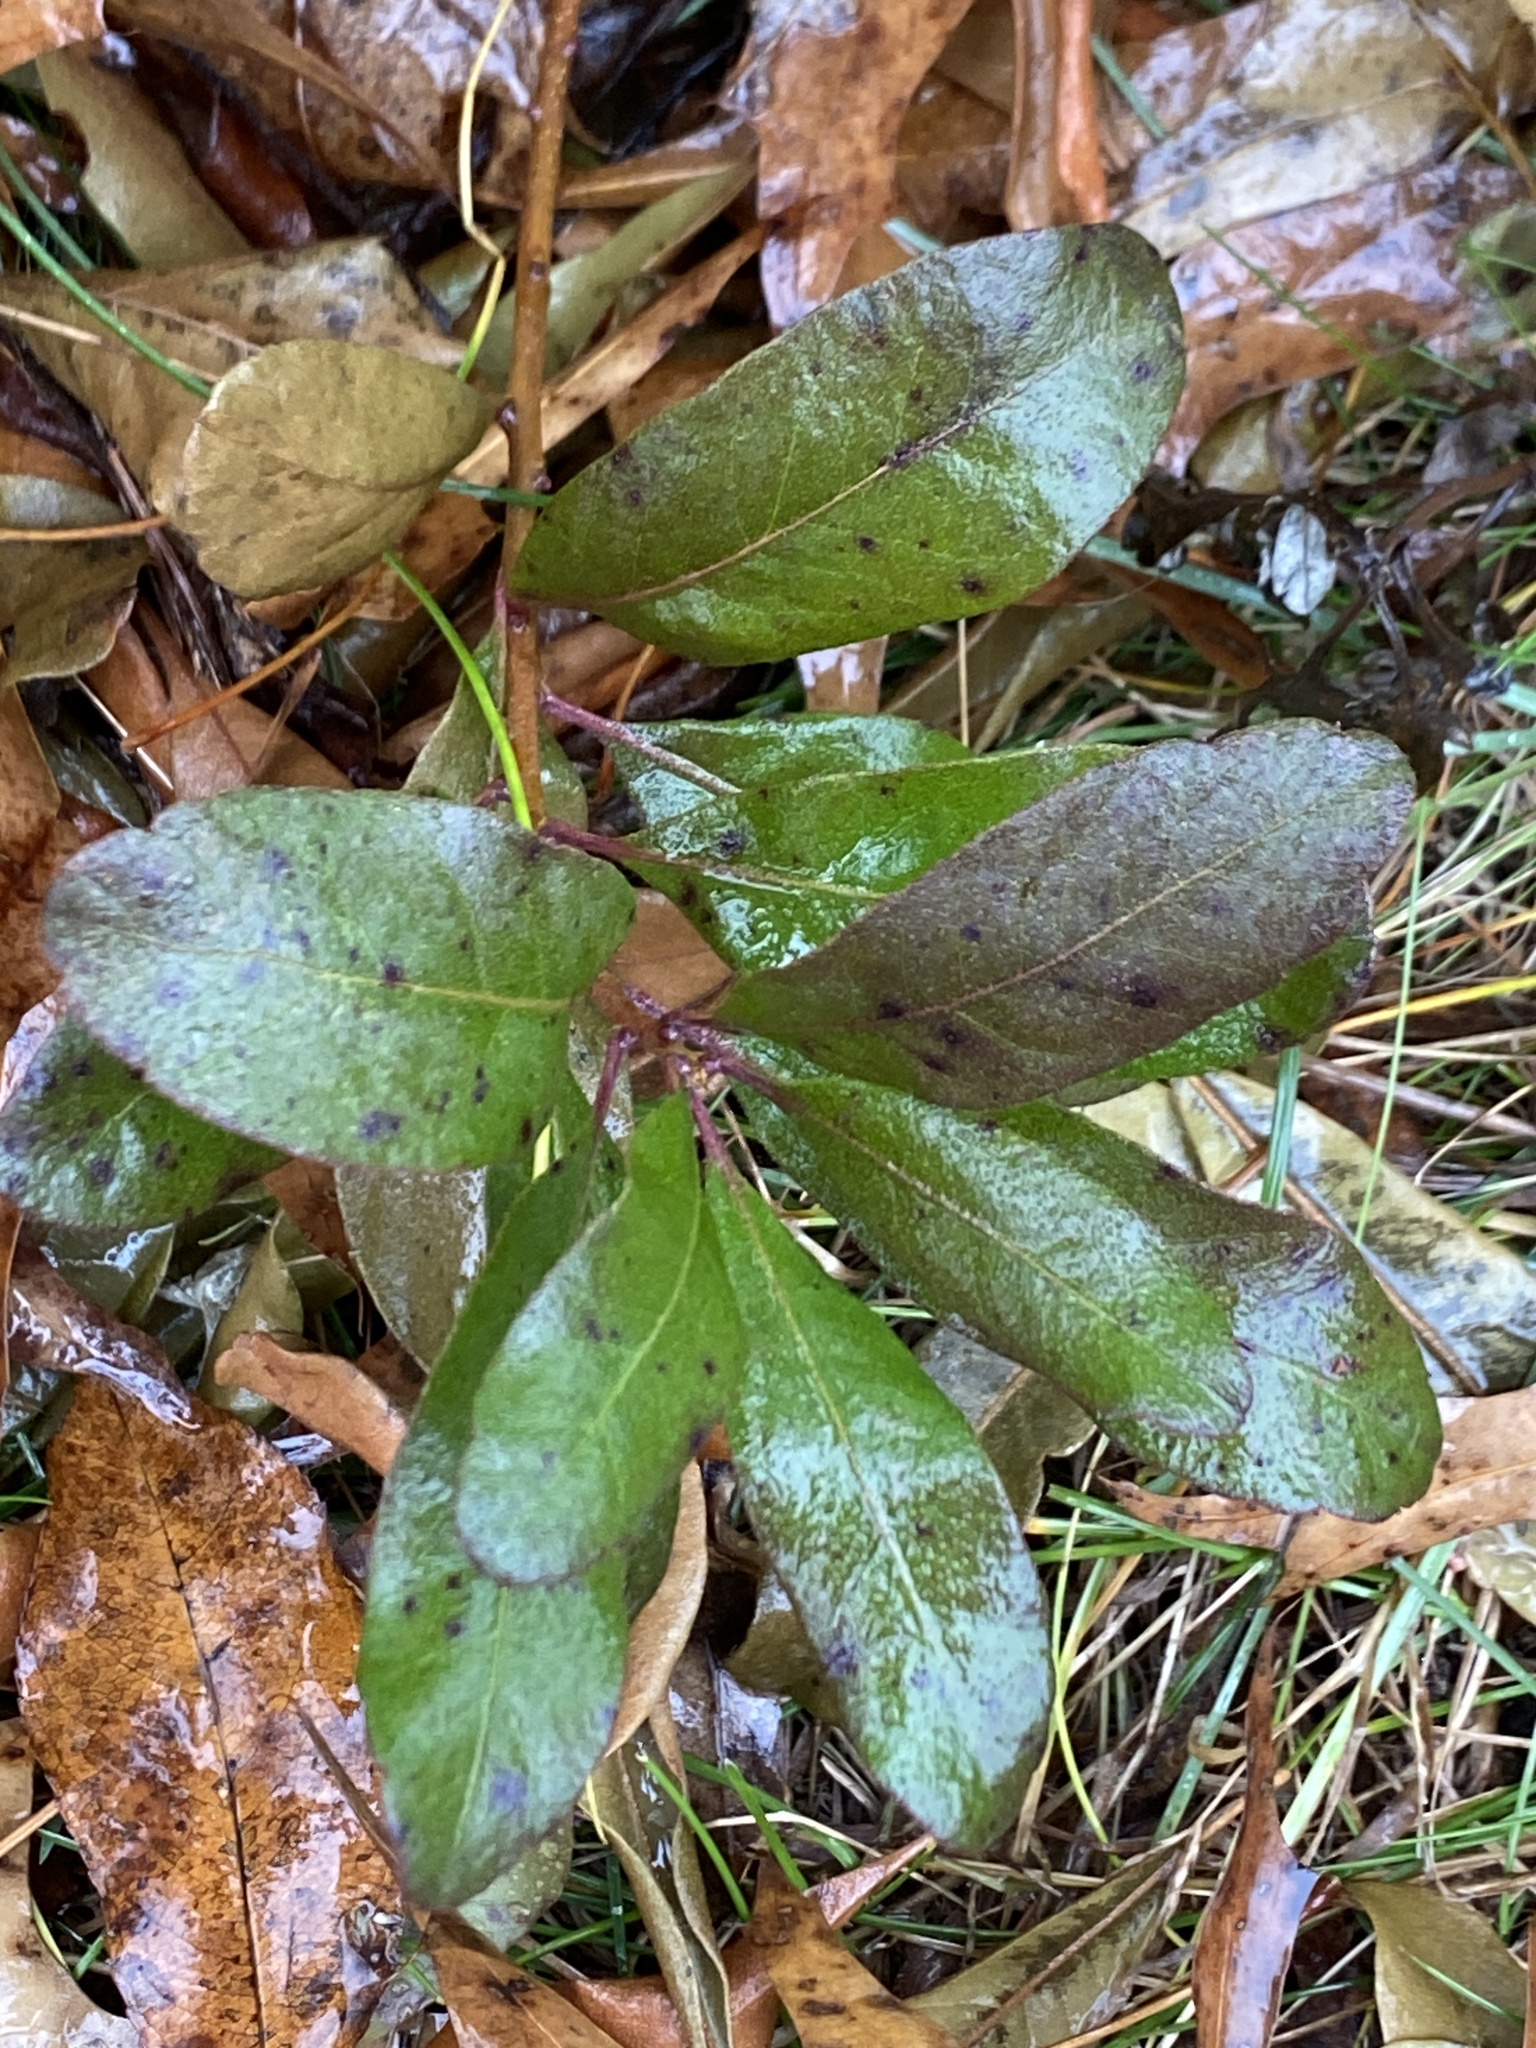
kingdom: Plantae
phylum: Tracheophyta
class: Magnoliopsida
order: Fagales
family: Myricaceae
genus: Morella
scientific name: Morella pensylvanica
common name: Northern bayberry
